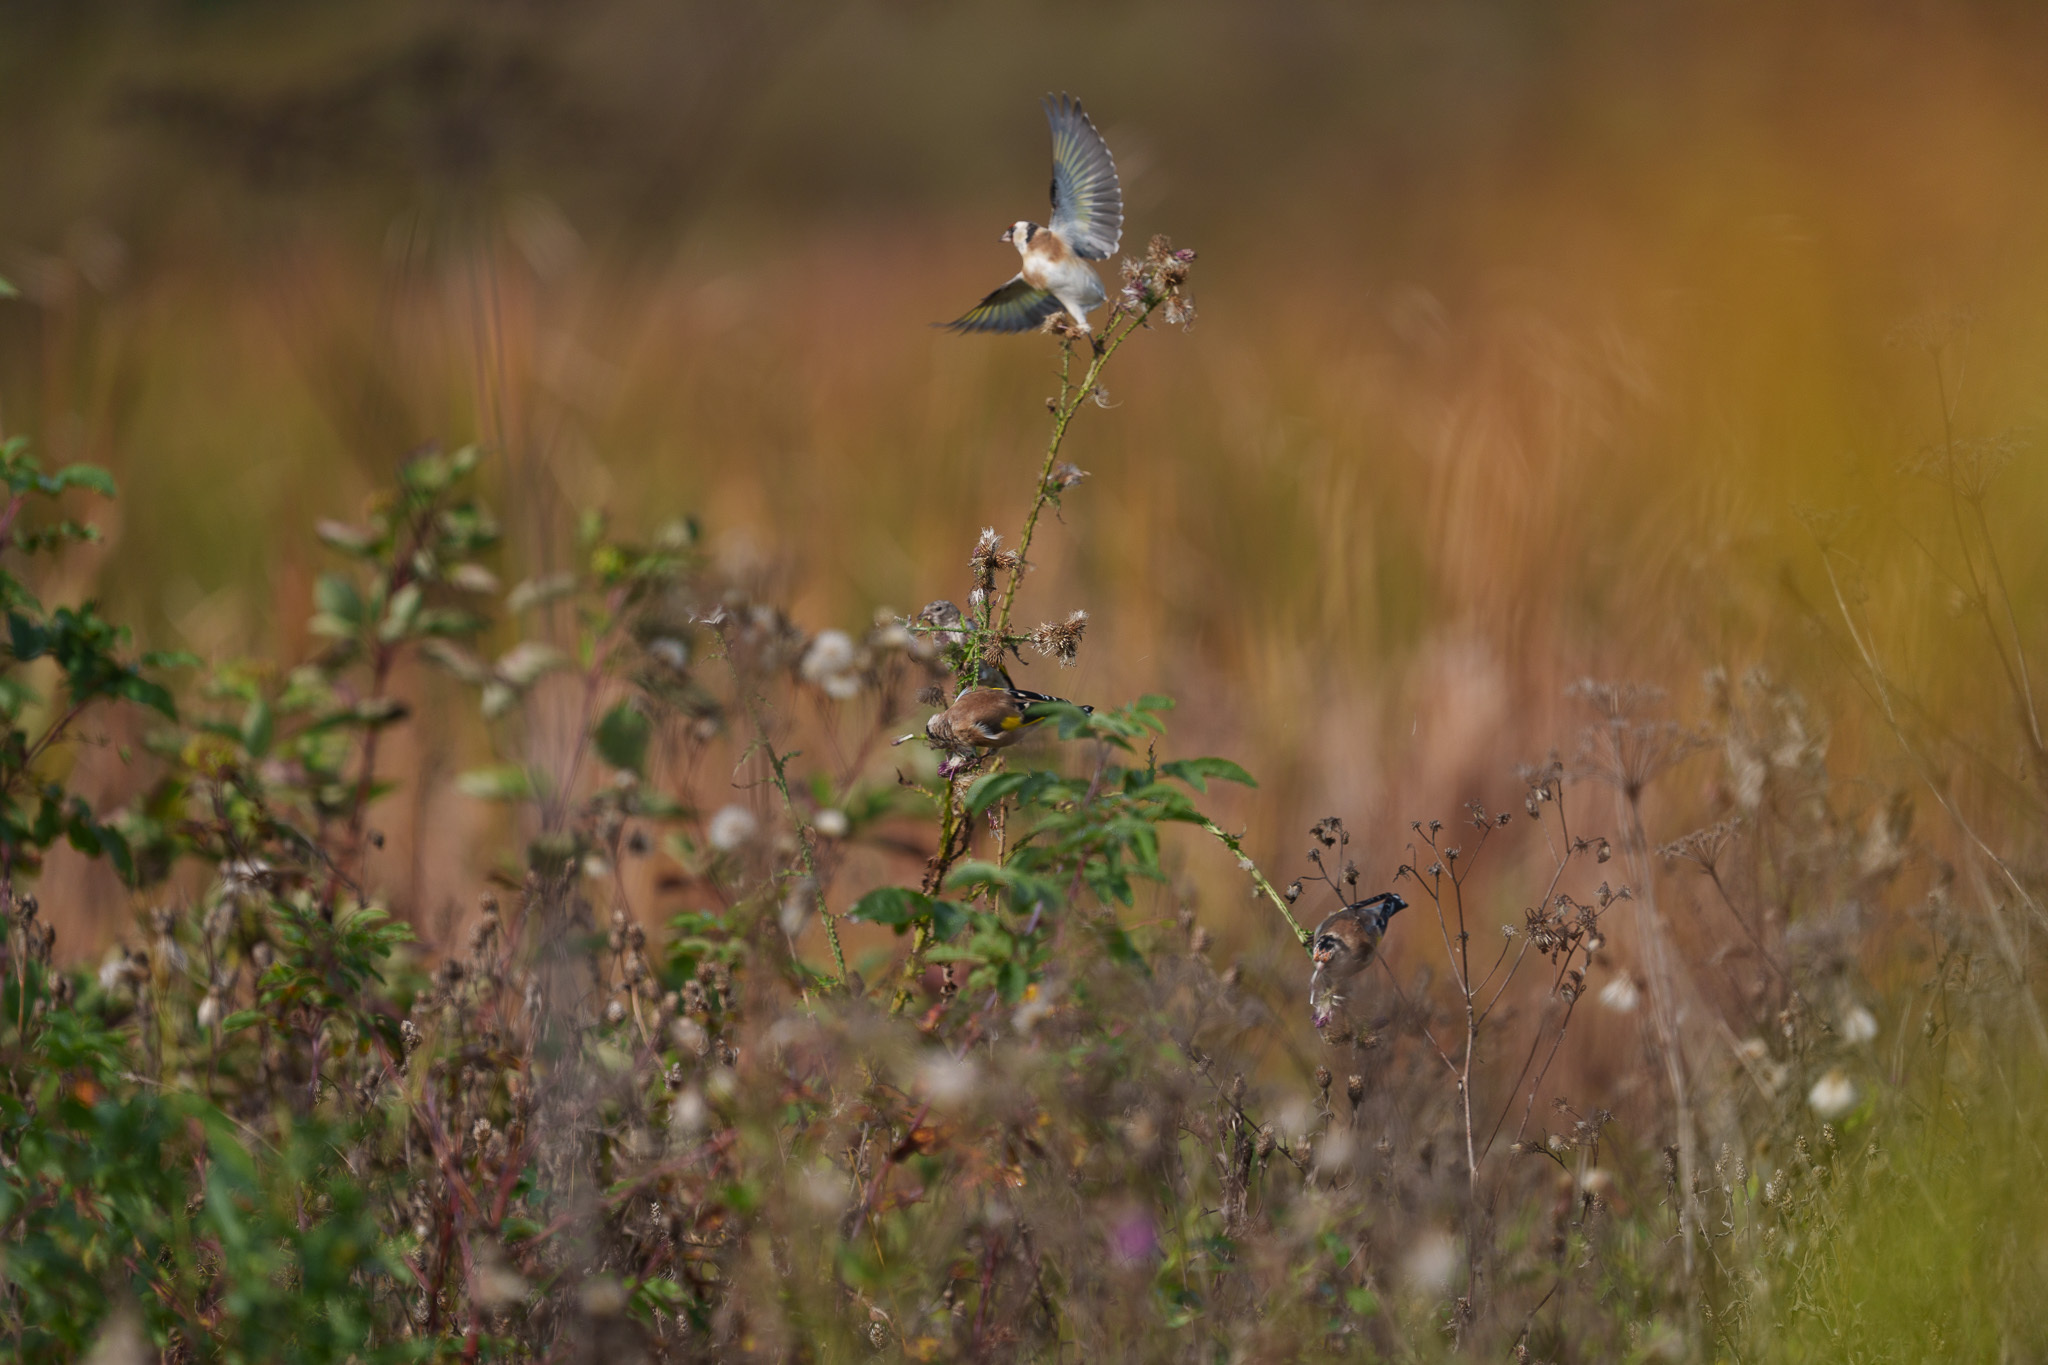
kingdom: Animalia
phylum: Chordata
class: Aves
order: Passeriformes
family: Fringillidae
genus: Carduelis
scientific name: Carduelis carduelis
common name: European goldfinch
